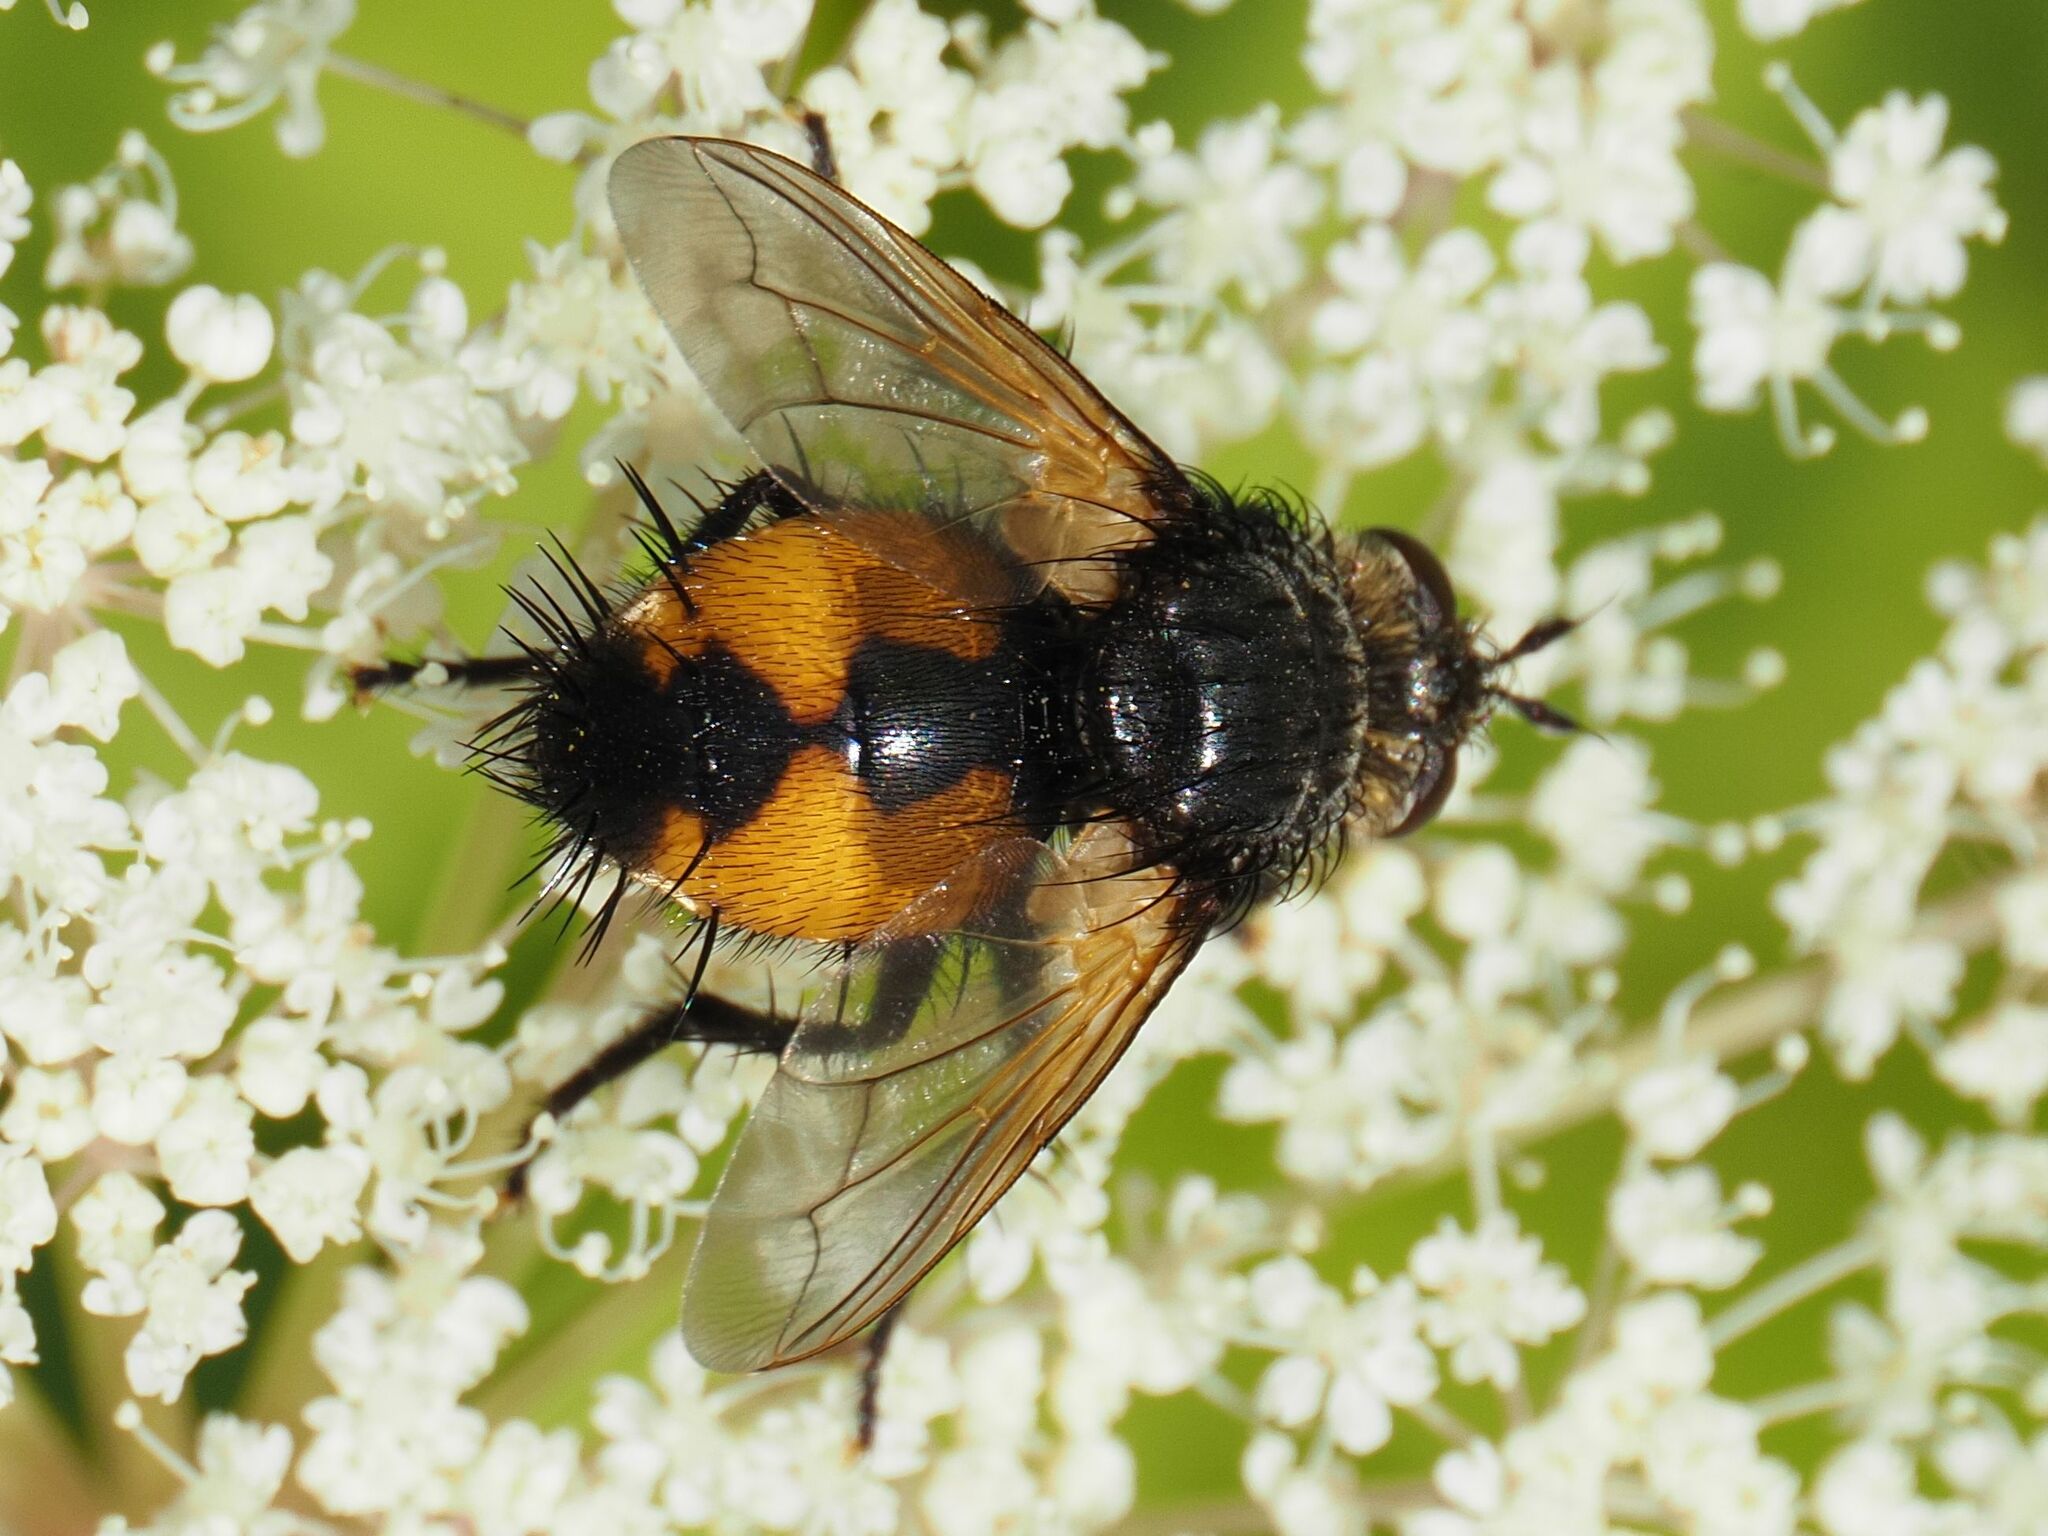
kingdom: Animalia
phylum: Arthropoda
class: Insecta
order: Diptera
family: Tachinidae
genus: Nowickia
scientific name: Nowickia ferox
